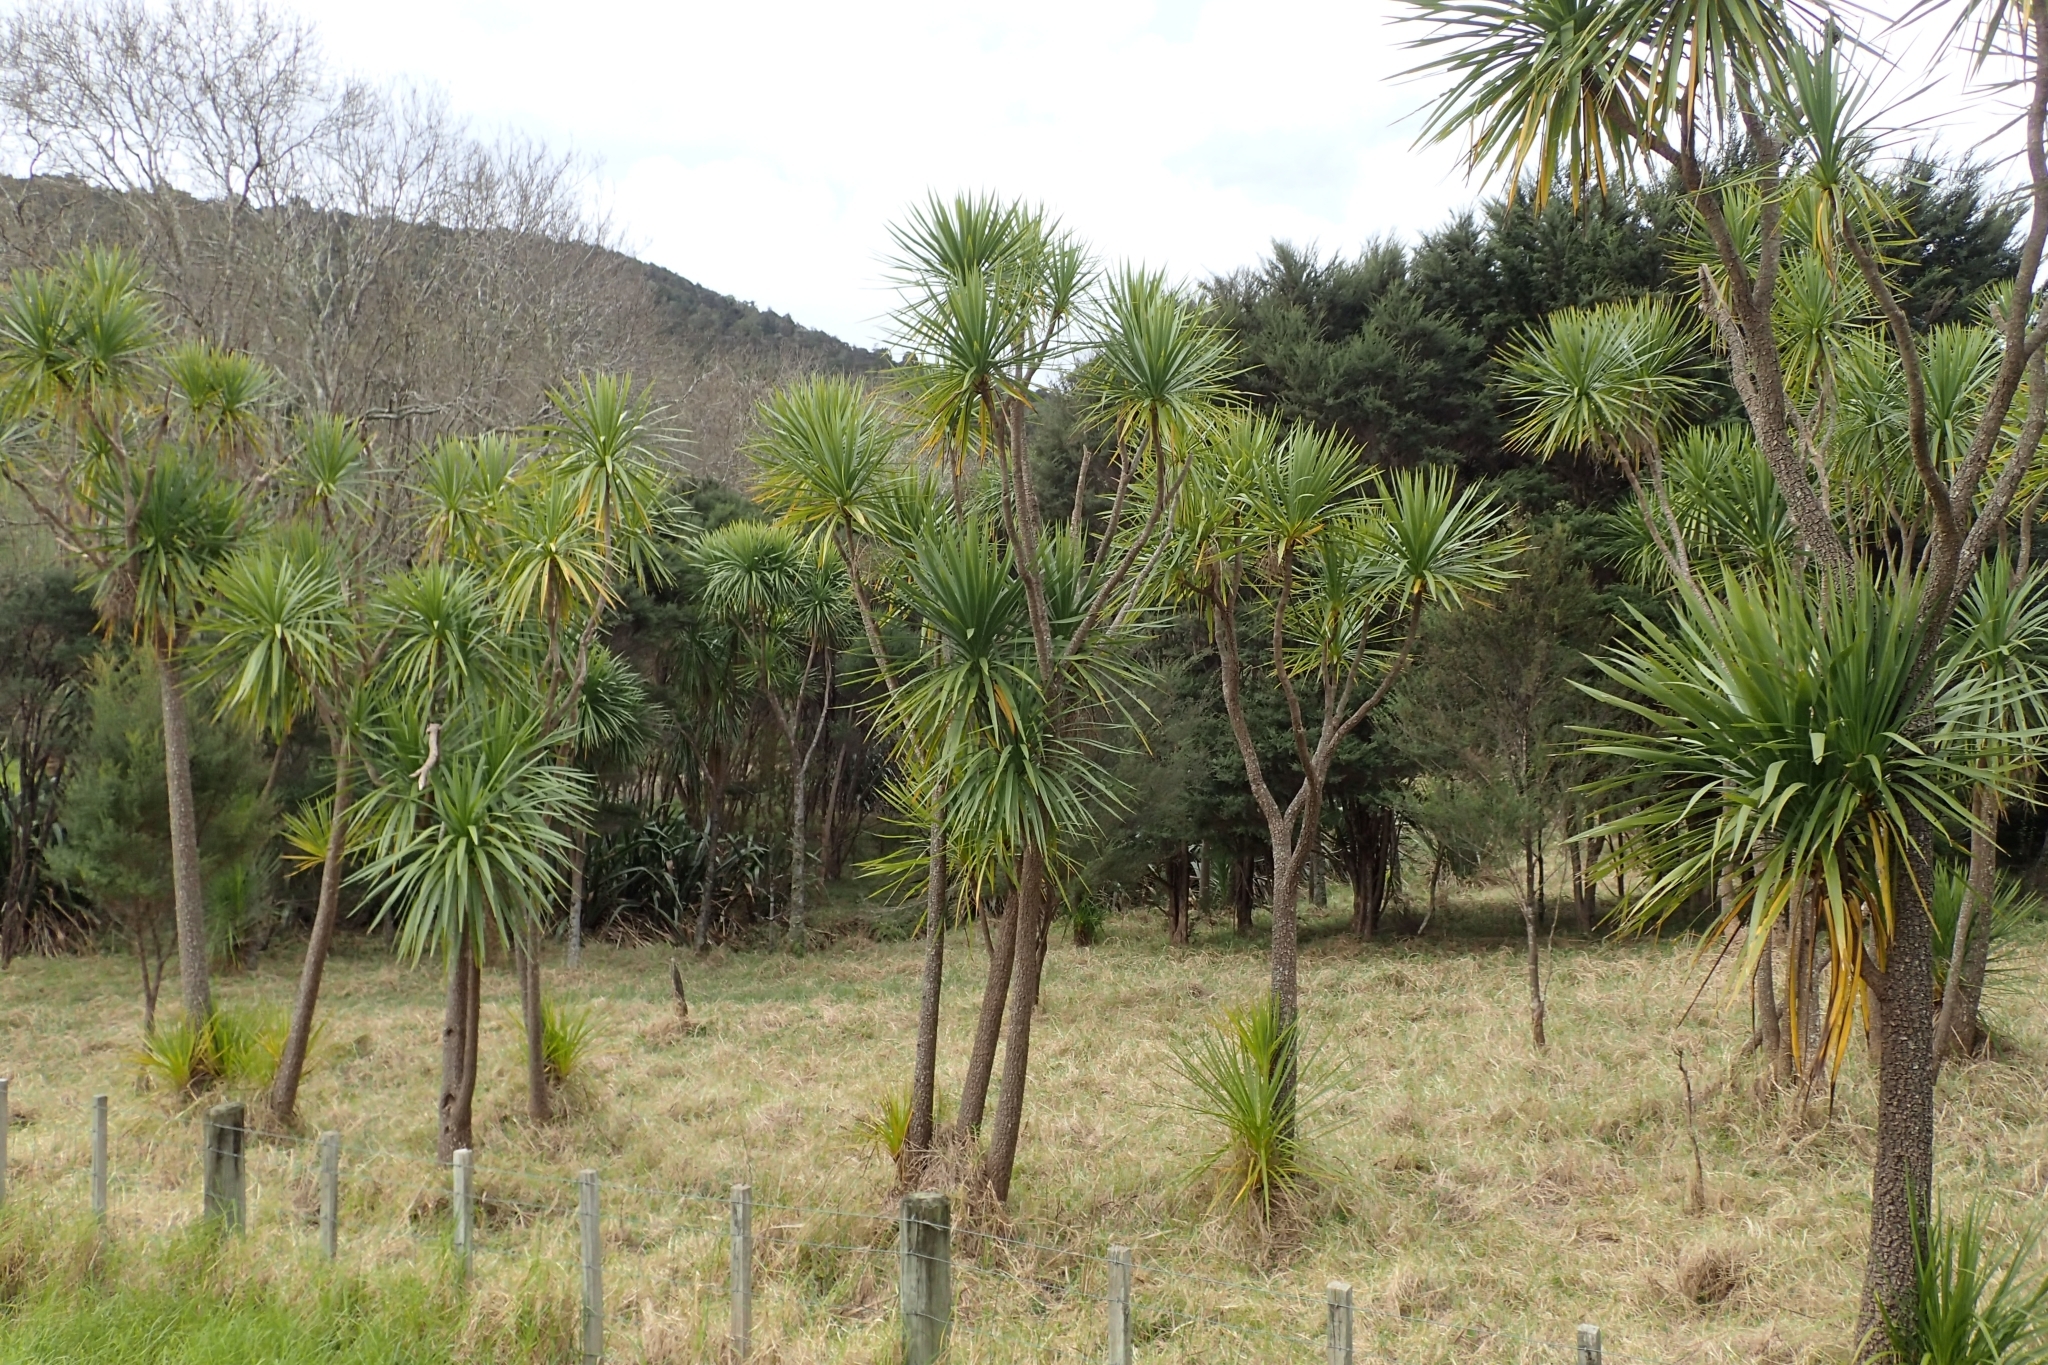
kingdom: Plantae
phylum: Tracheophyta
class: Liliopsida
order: Asparagales
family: Asparagaceae
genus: Cordyline
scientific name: Cordyline australis
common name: Cabbage-palm
